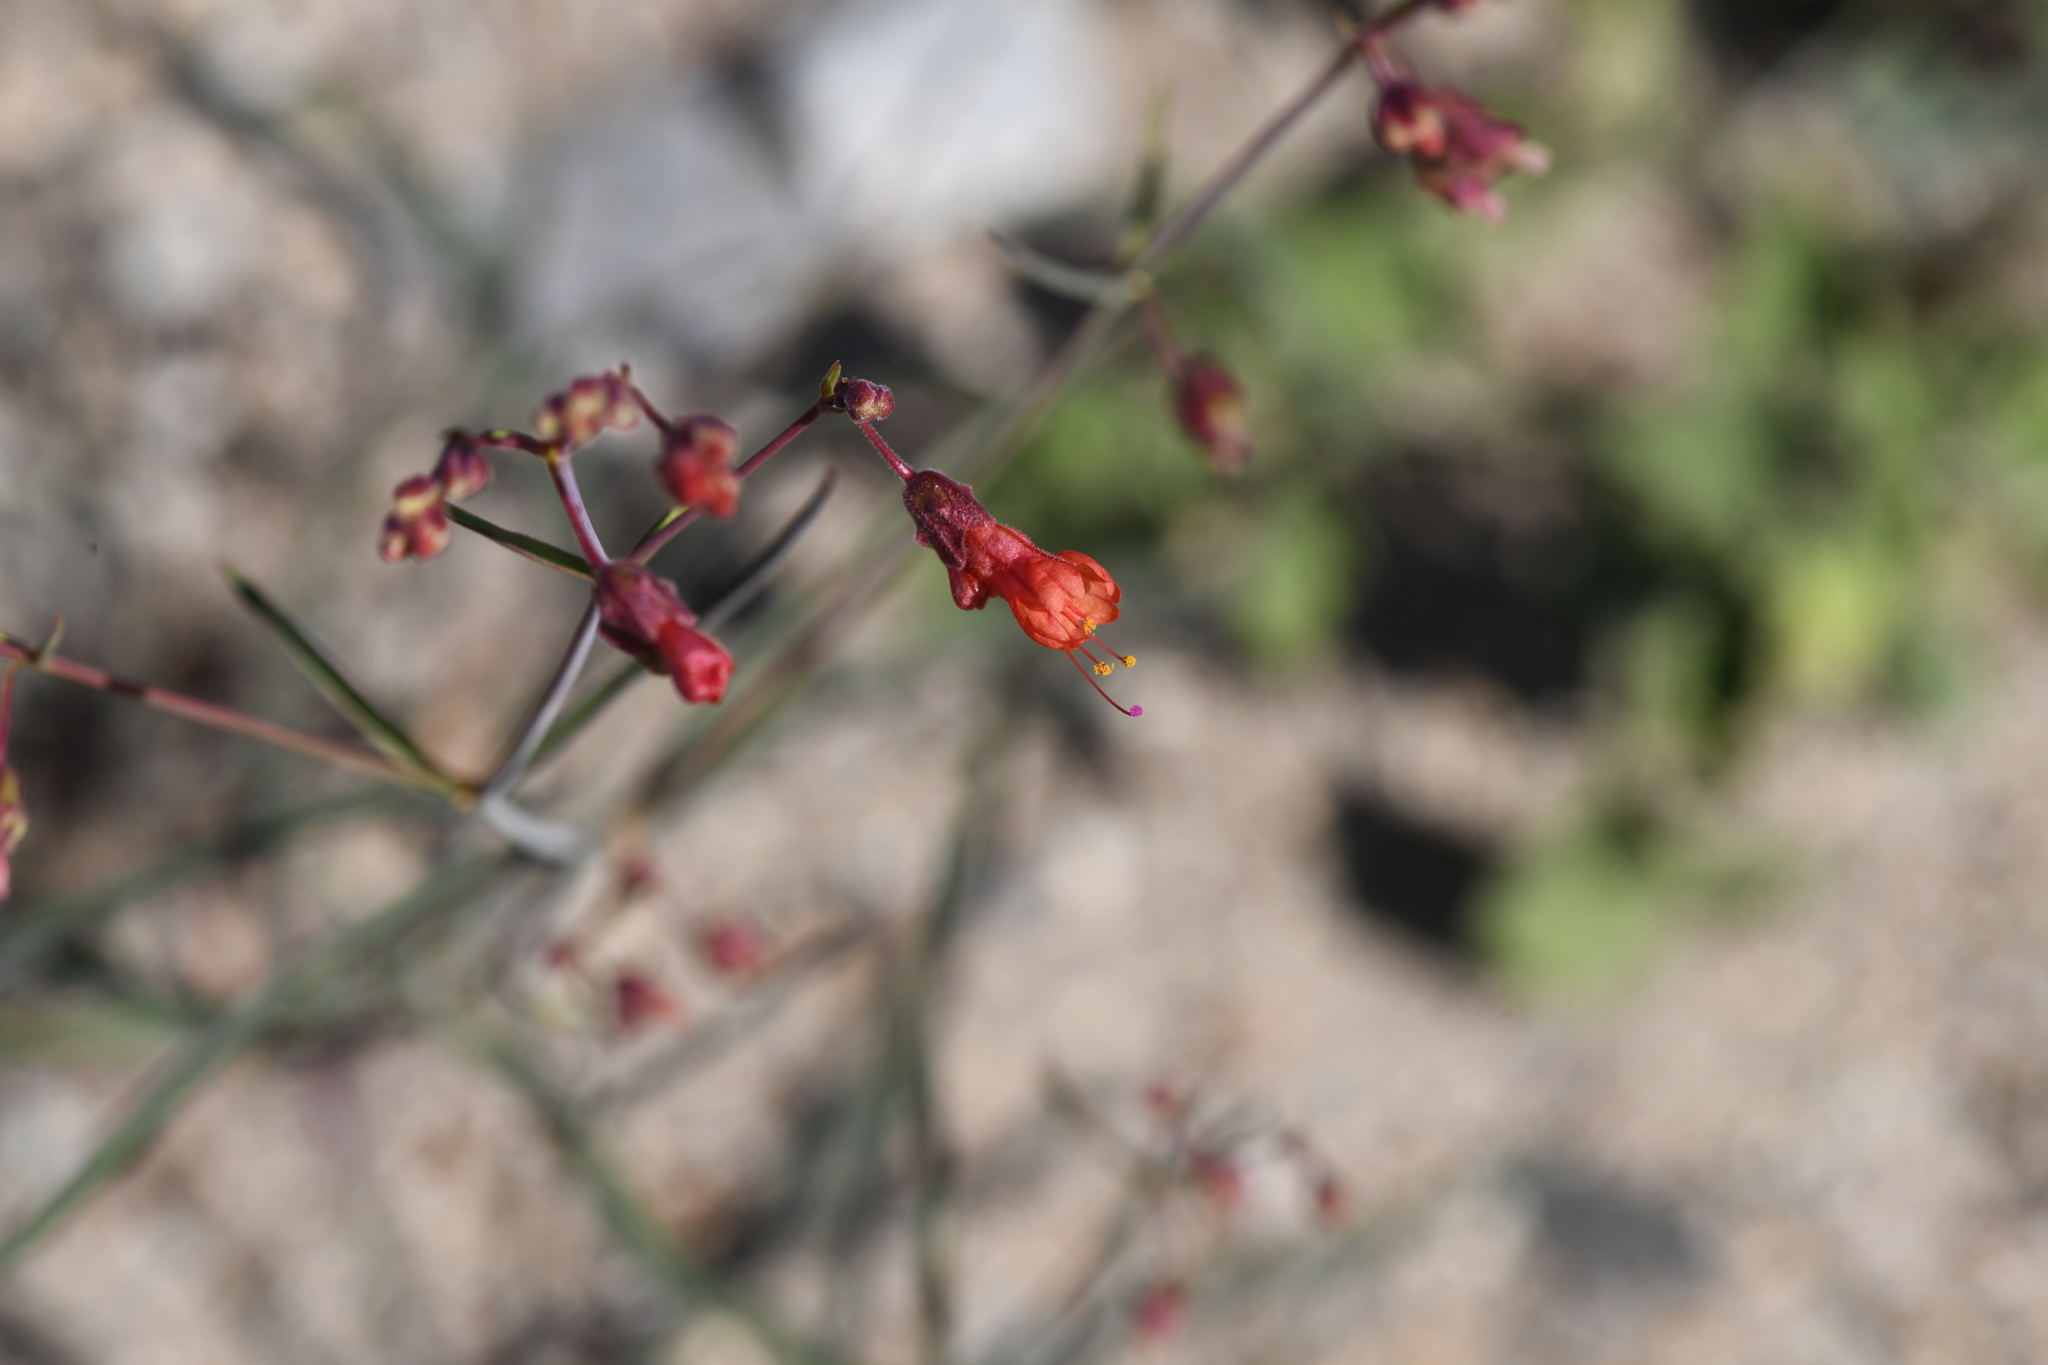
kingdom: Plantae
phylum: Tracheophyta
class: Magnoliopsida
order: Caryophyllales
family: Nyctaginaceae
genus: Mirabilis
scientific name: Mirabilis coccinea
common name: Scarlet four-o'clock
